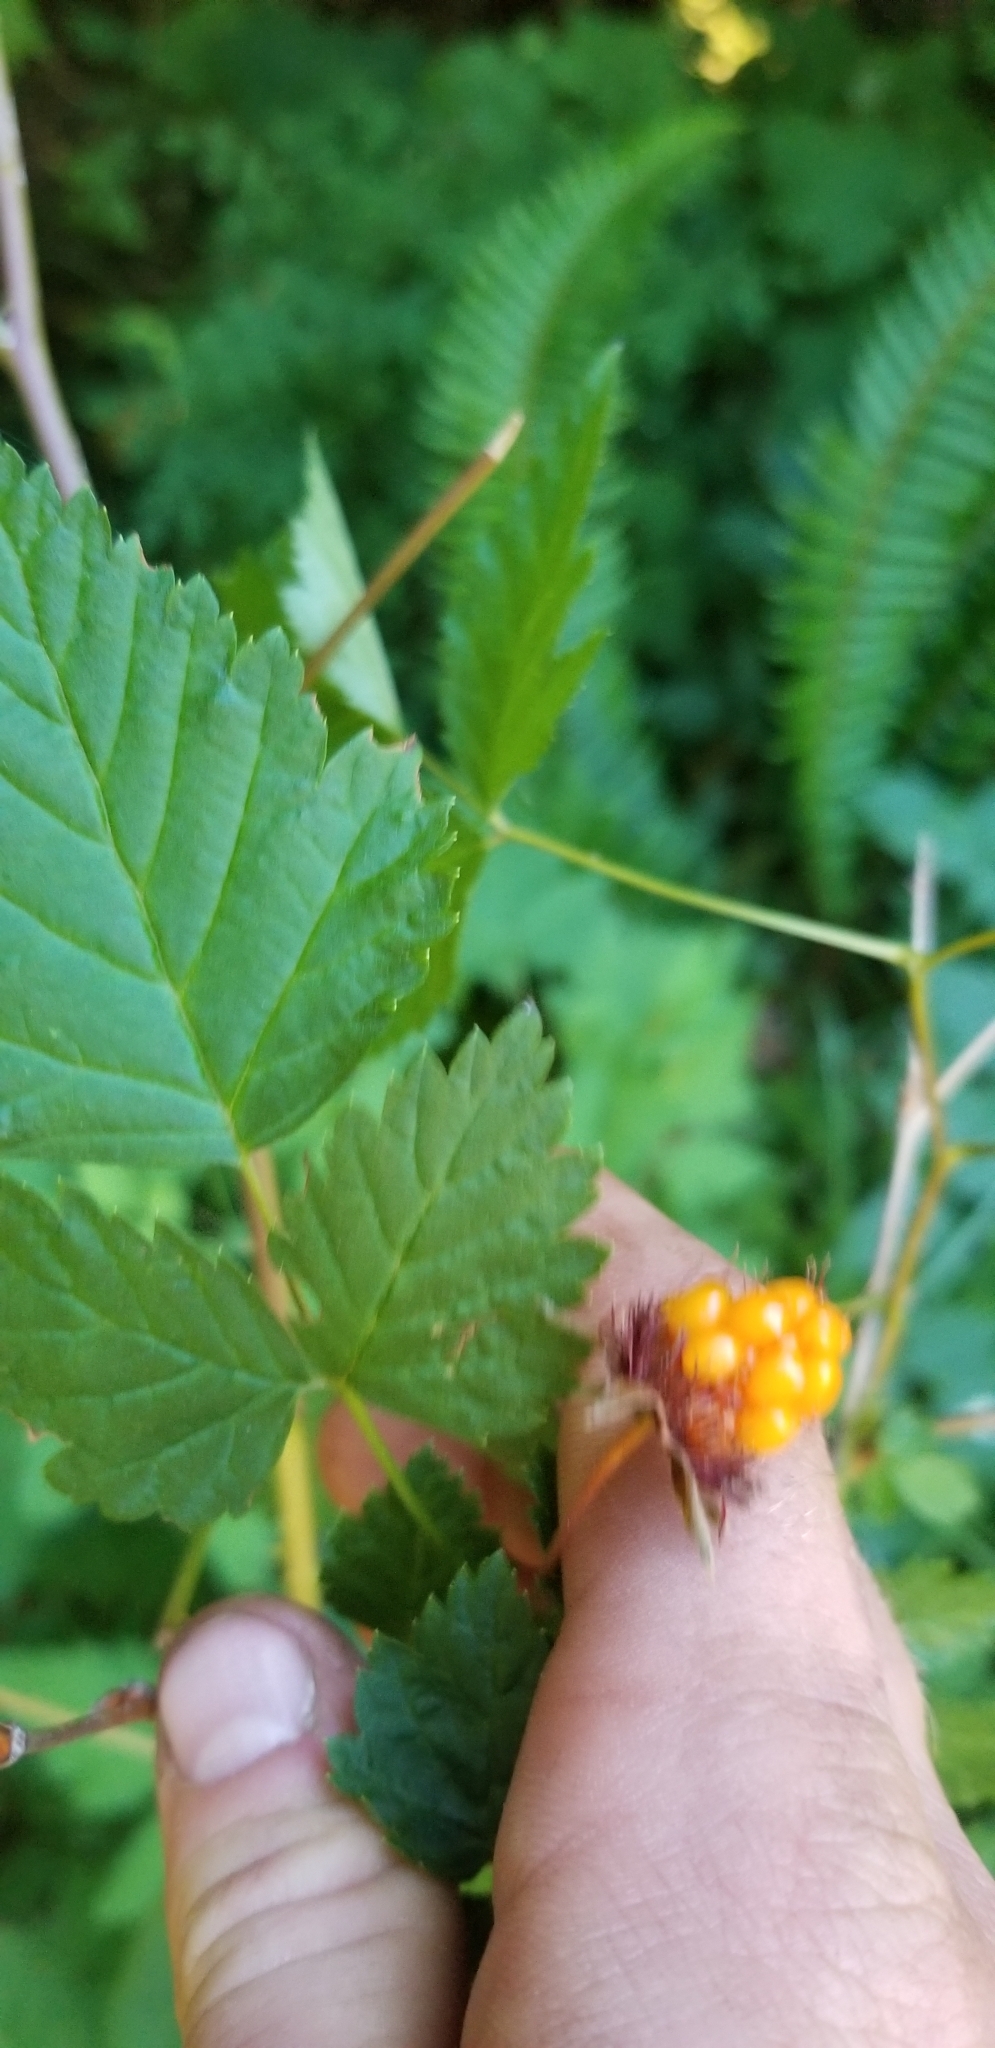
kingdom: Plantae
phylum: Tracheophyta
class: Magnoliopsida
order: Rosales
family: Rosaceae
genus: Rubus
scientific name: Rubus spectabilis
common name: Salmonberry
